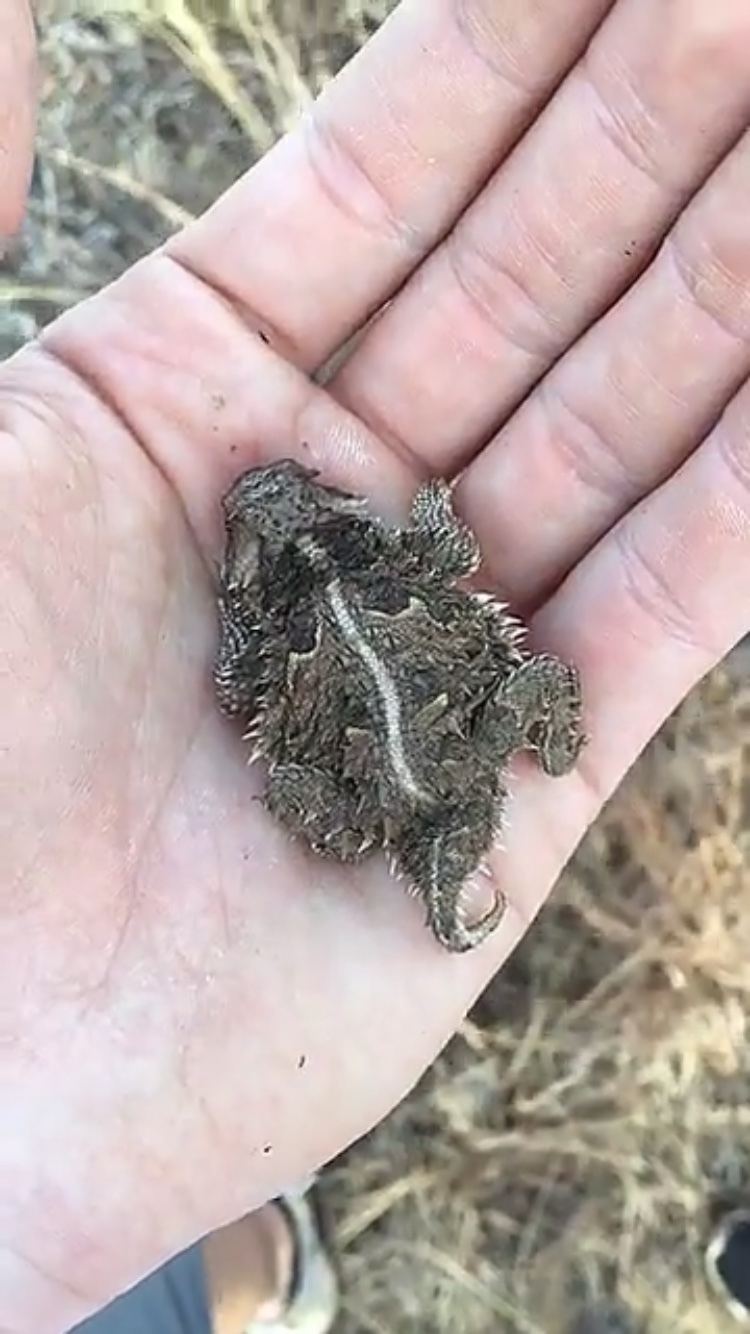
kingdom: Animalia
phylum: Chordata
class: Squamata
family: Phrynosomatidae
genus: Phrynosoma
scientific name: Phrynosoma cornutum
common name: Texas horned lizard
